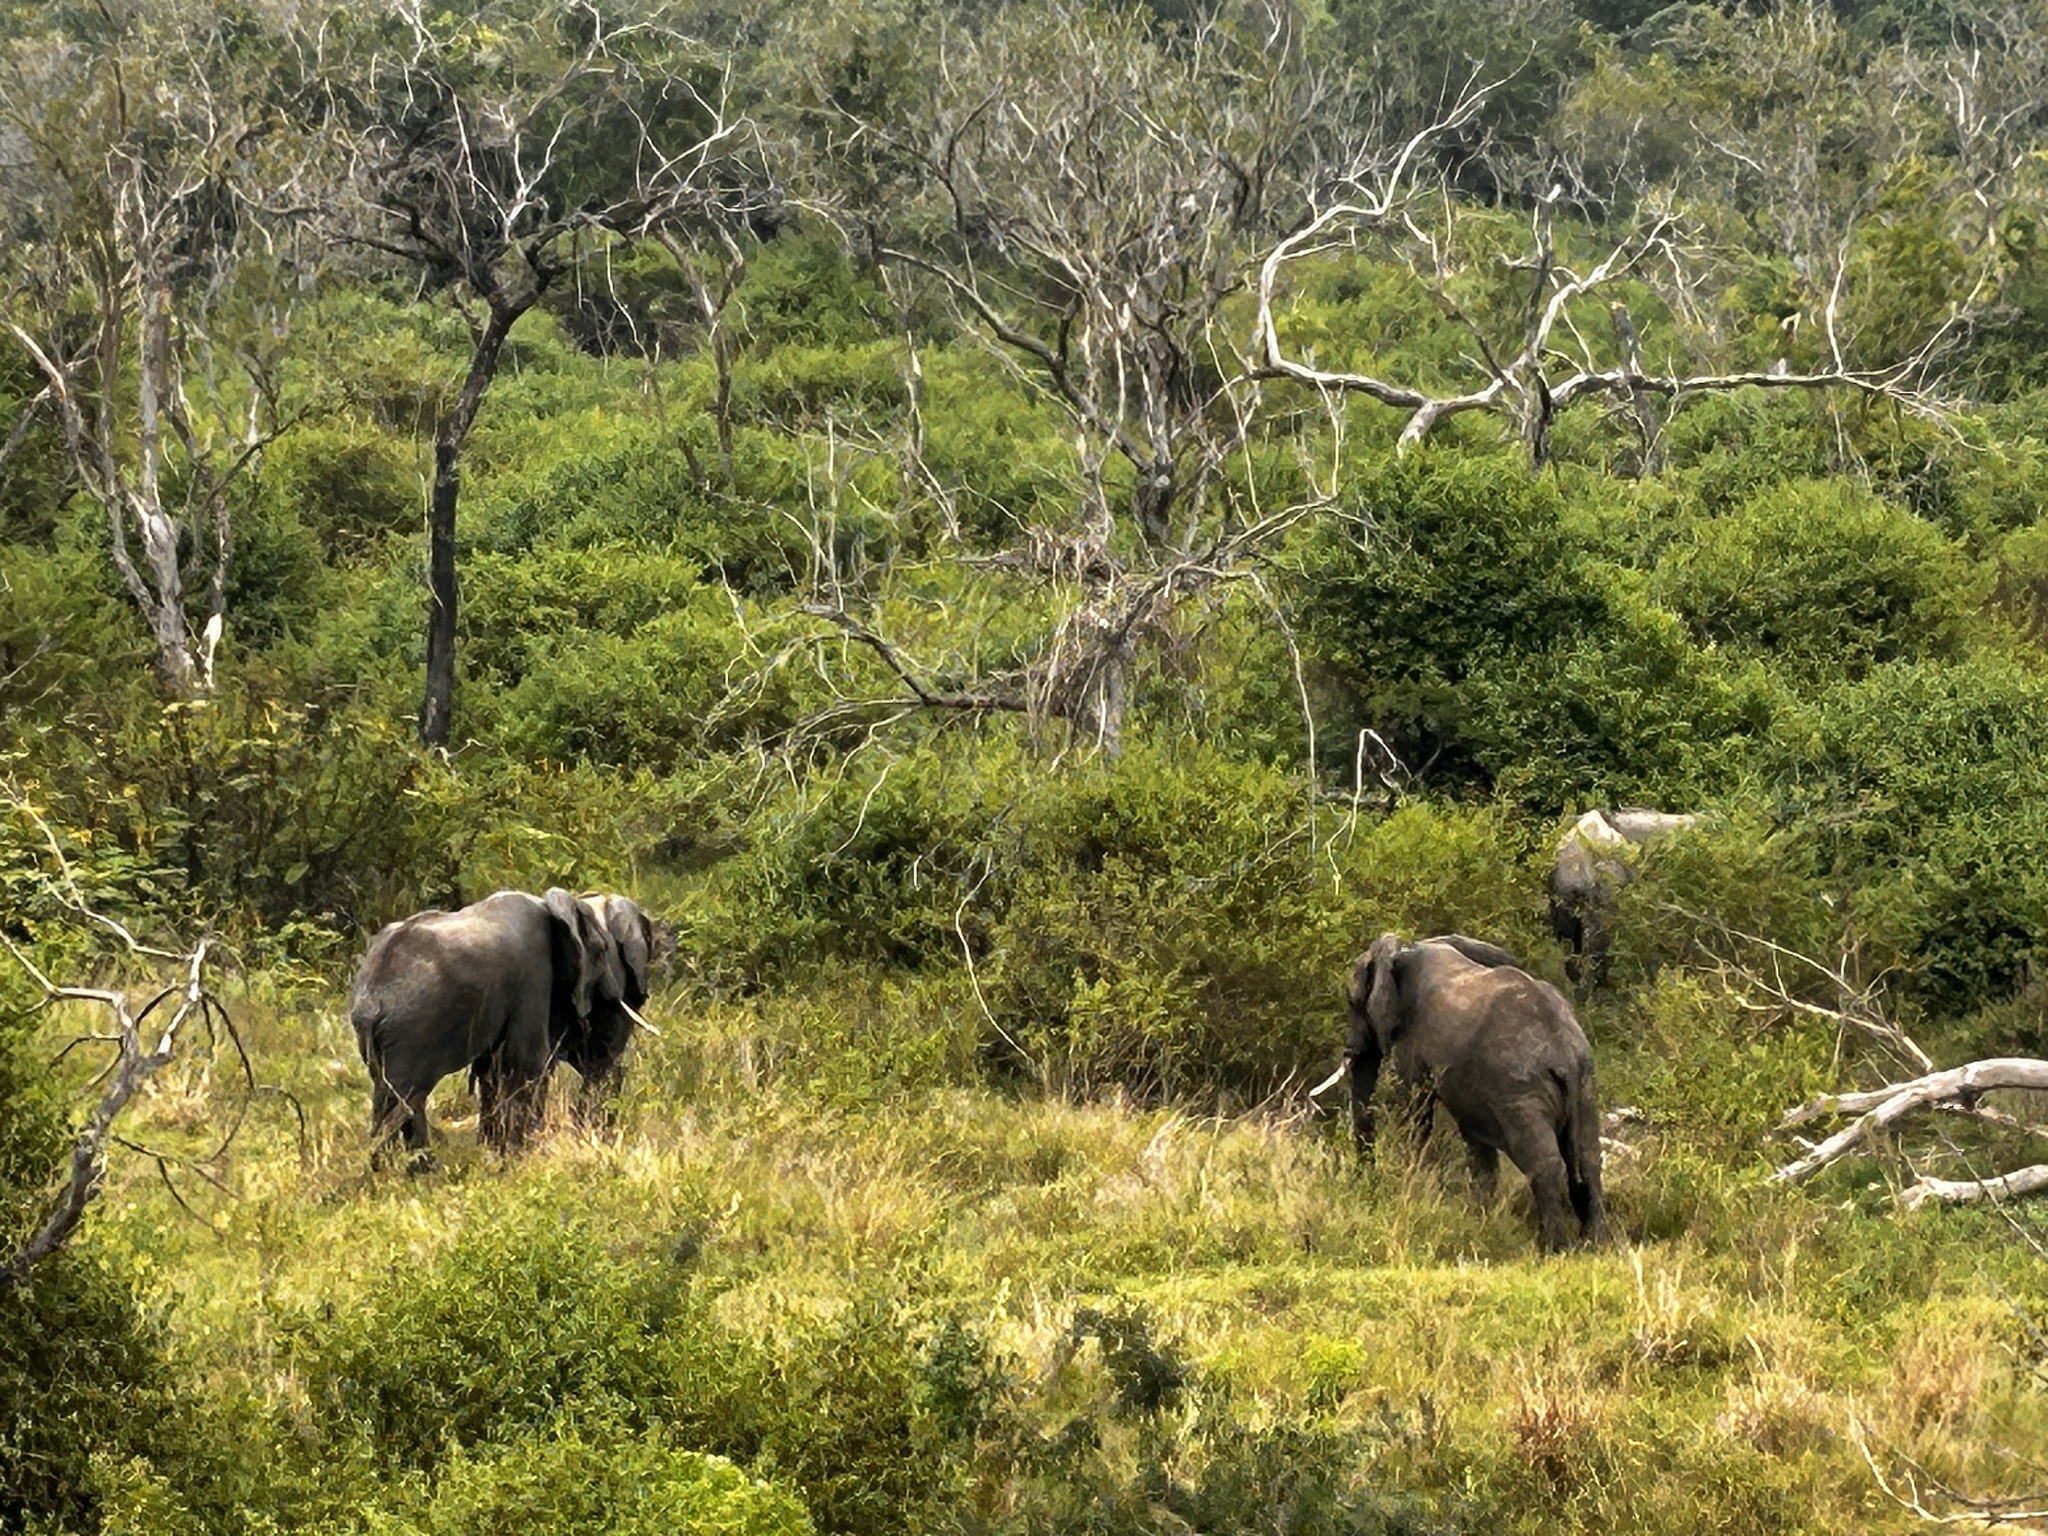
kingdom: Animalia
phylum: Chordata
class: Mammalia
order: Proboscidea
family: Elephantidae
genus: Loxodonta
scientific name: Loxodonta africana
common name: African elephant
